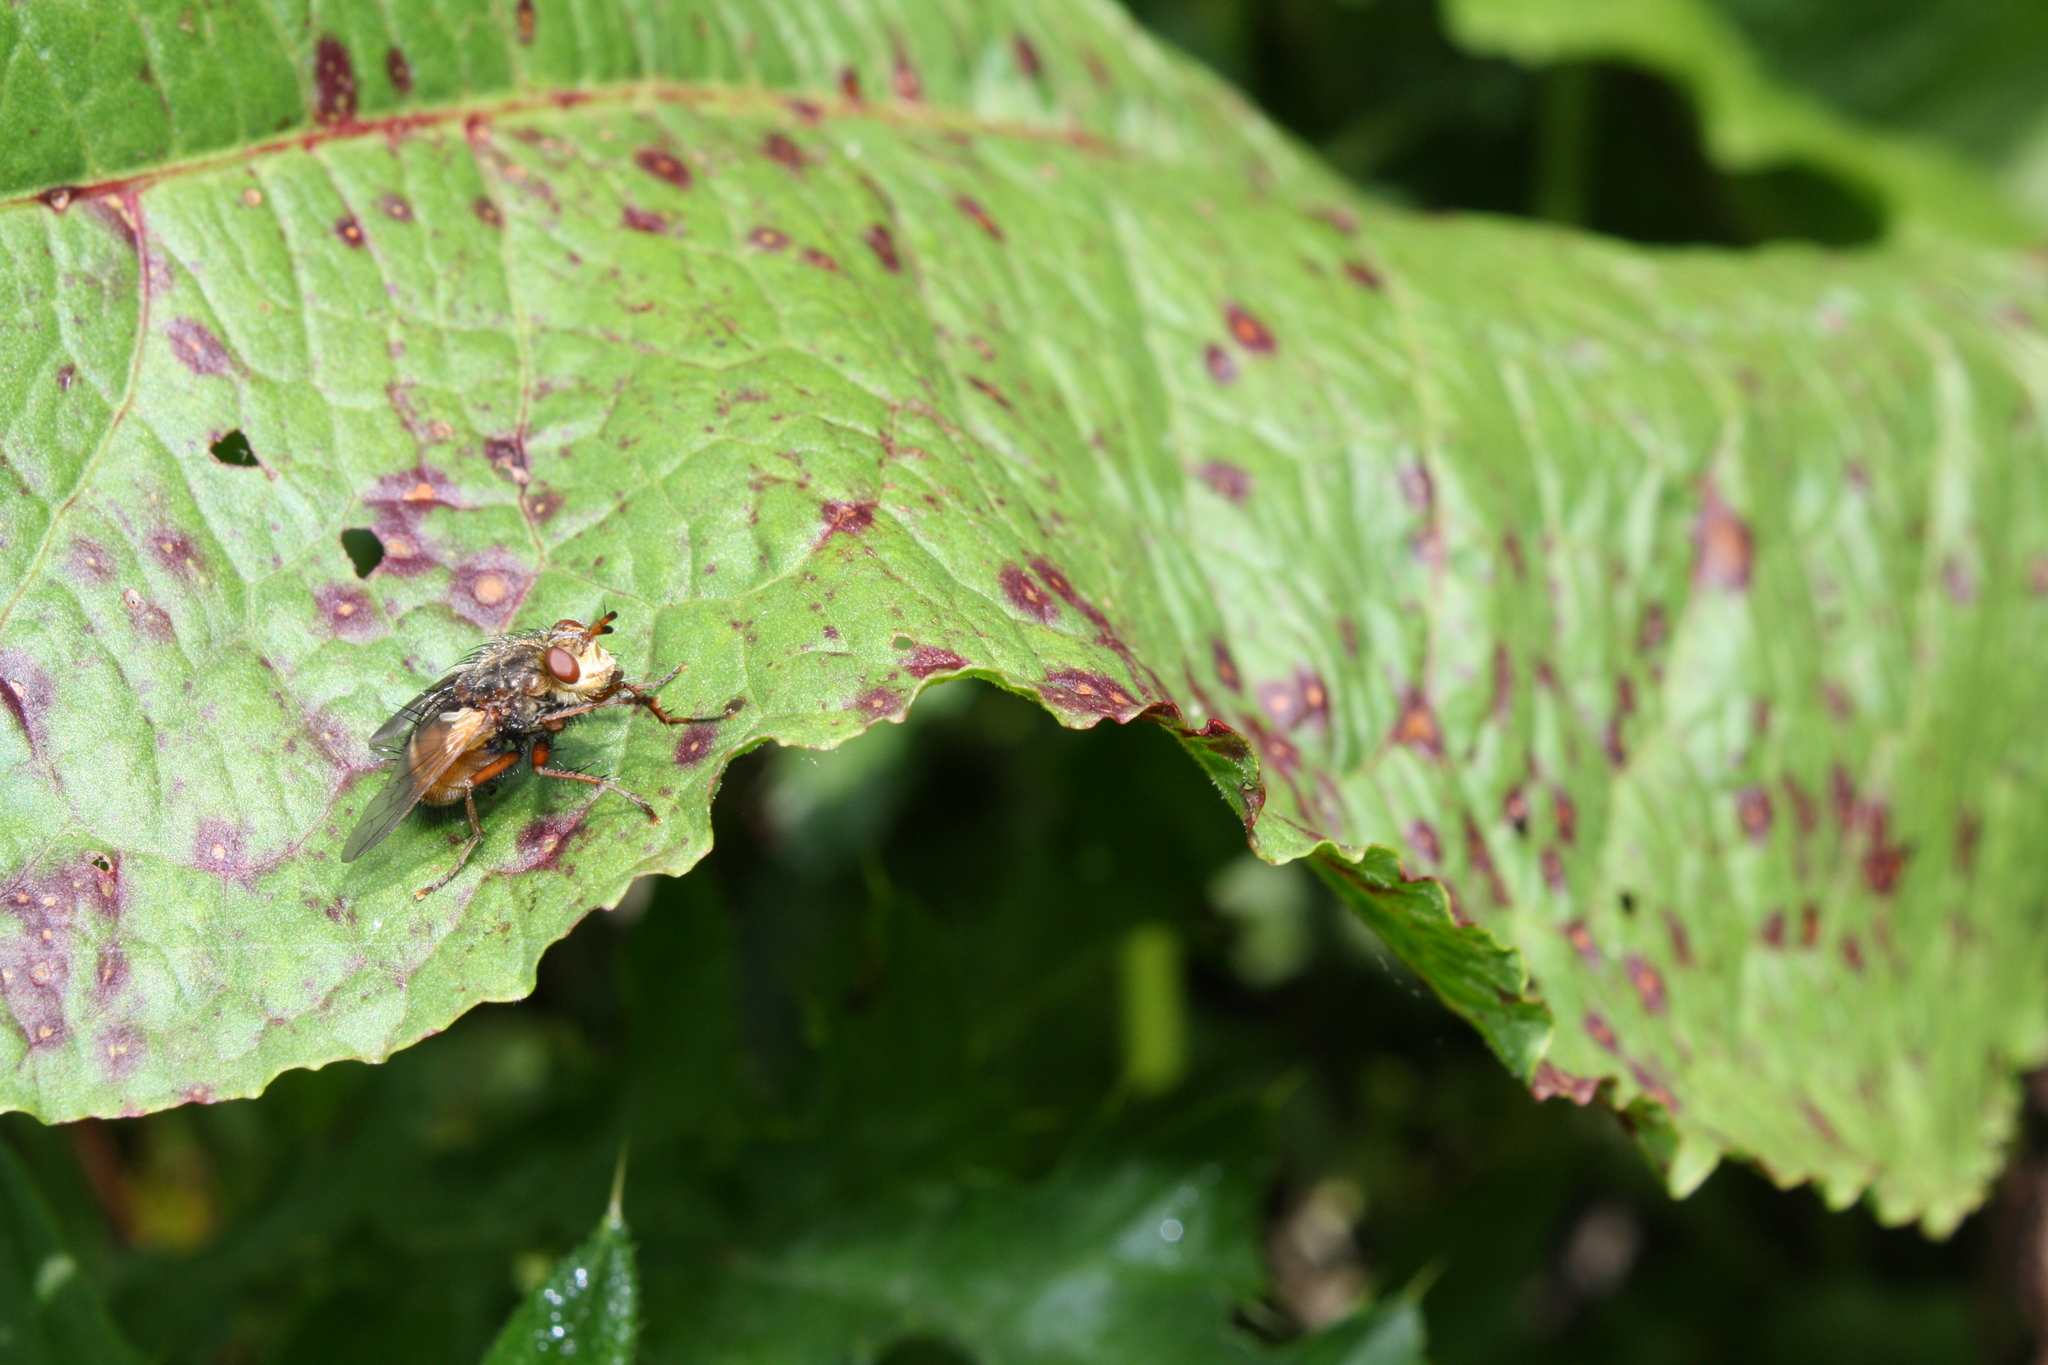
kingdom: Animalia
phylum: Arthropoda
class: Insecta
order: Diptera
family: Tachinidae
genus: Tachina
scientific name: Tachina fera
